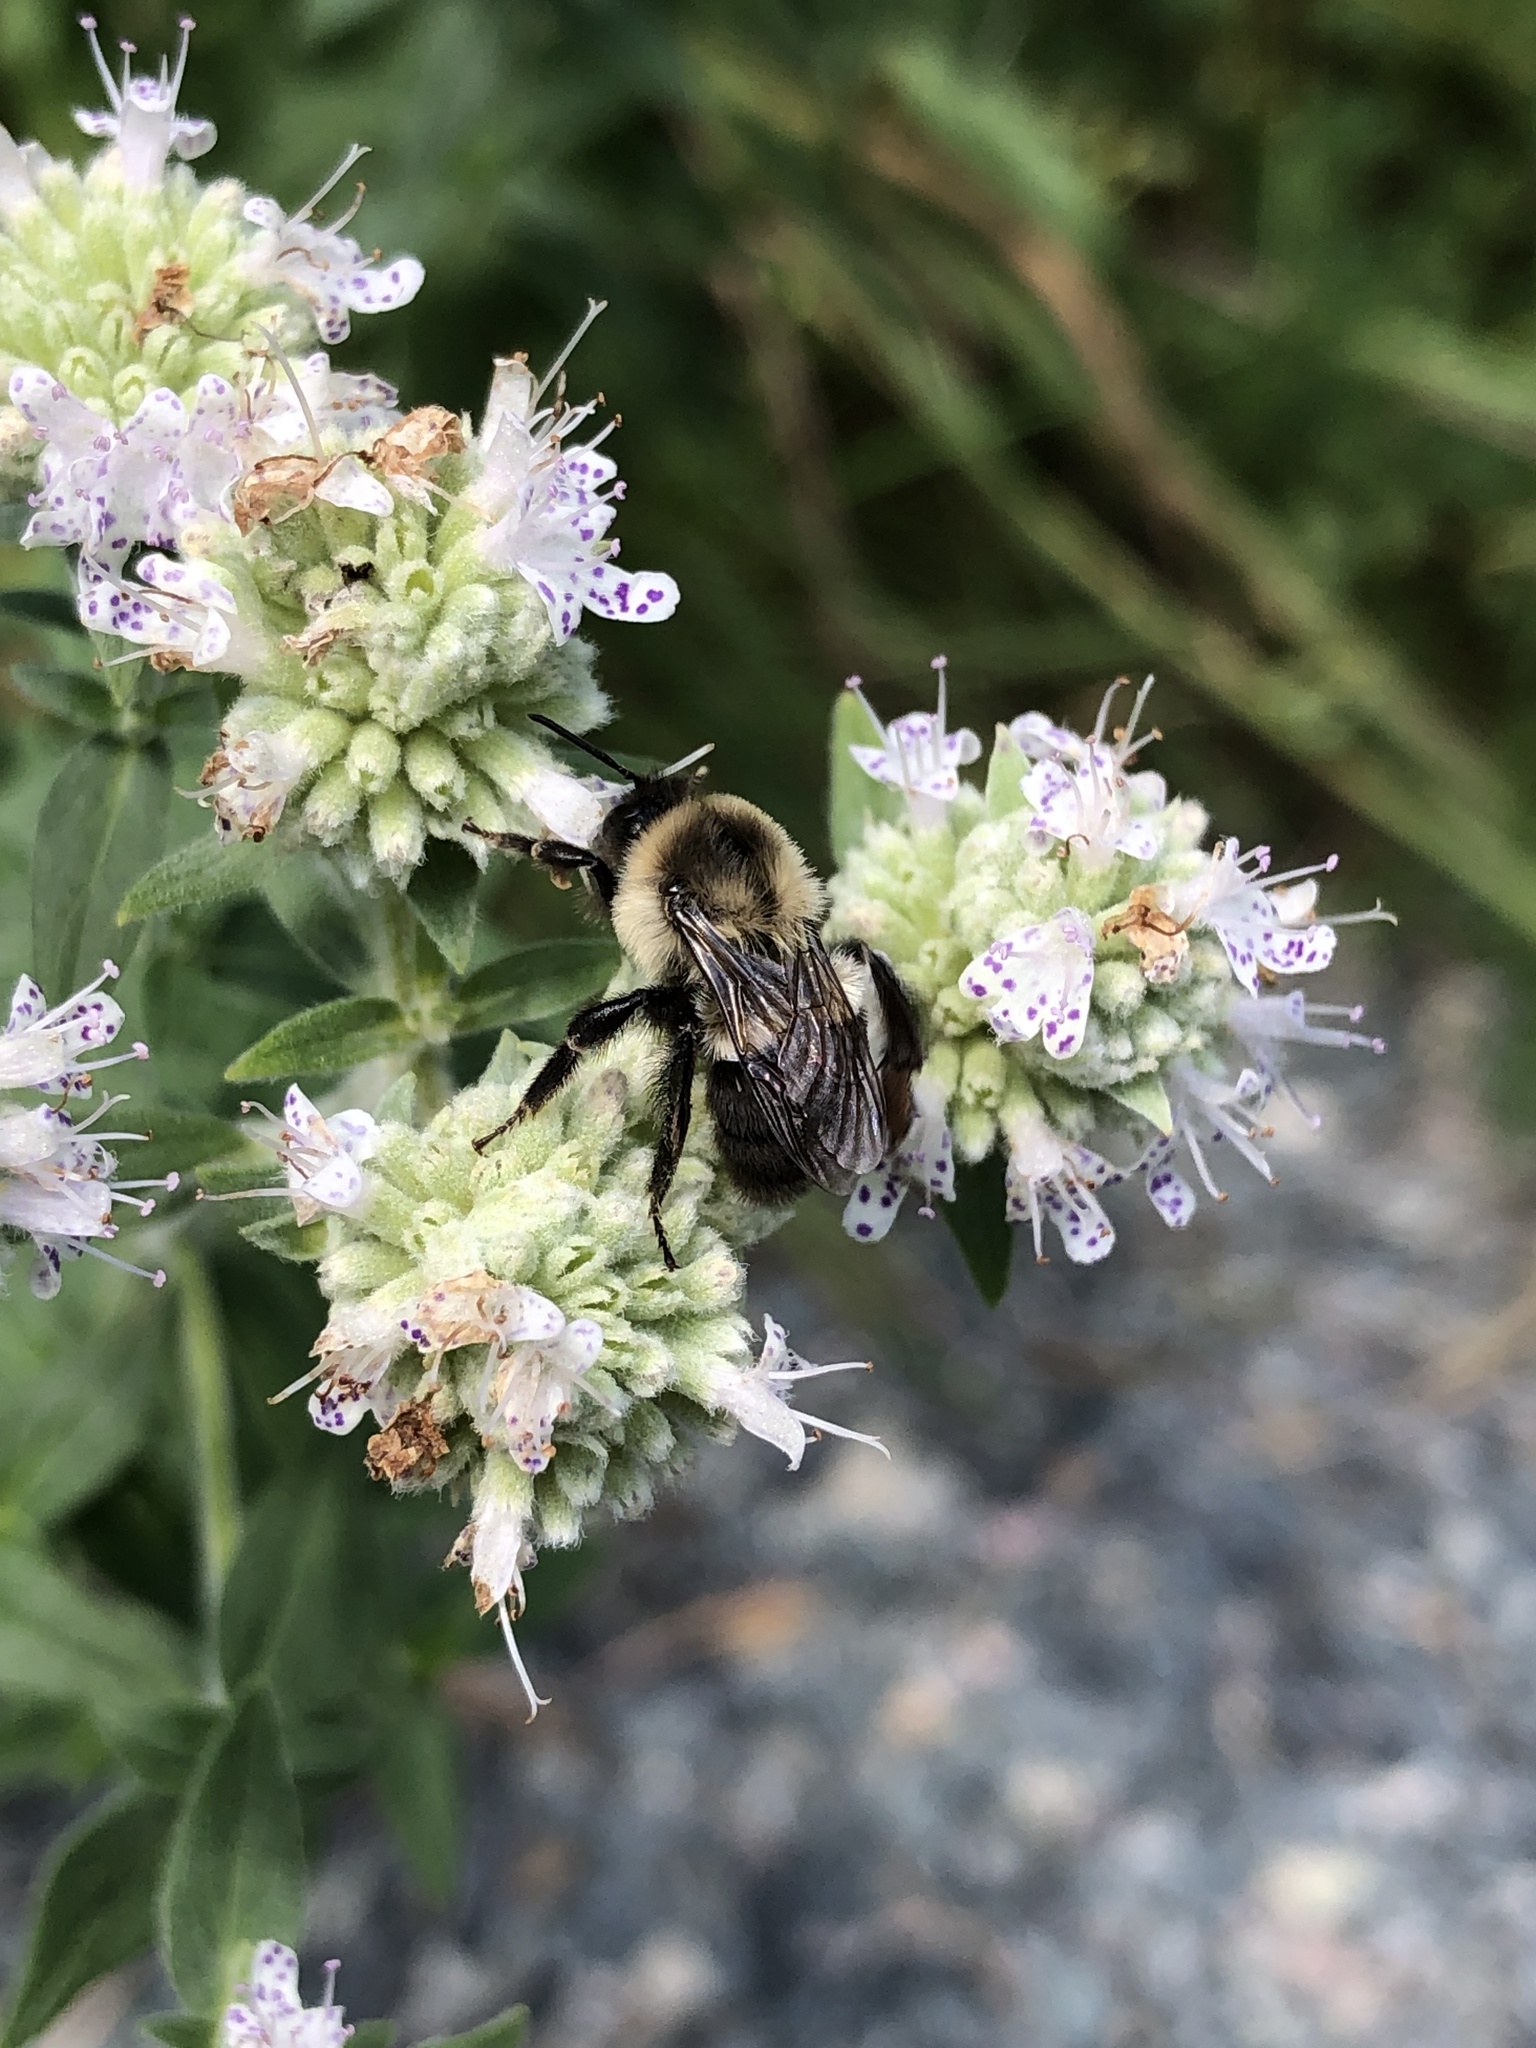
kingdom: Animalia
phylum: Arthropoda
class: Insecta
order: Hymenoptera
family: Apidae
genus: Bombus
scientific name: Bombus impatiens
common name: Common eastern bumble bee
